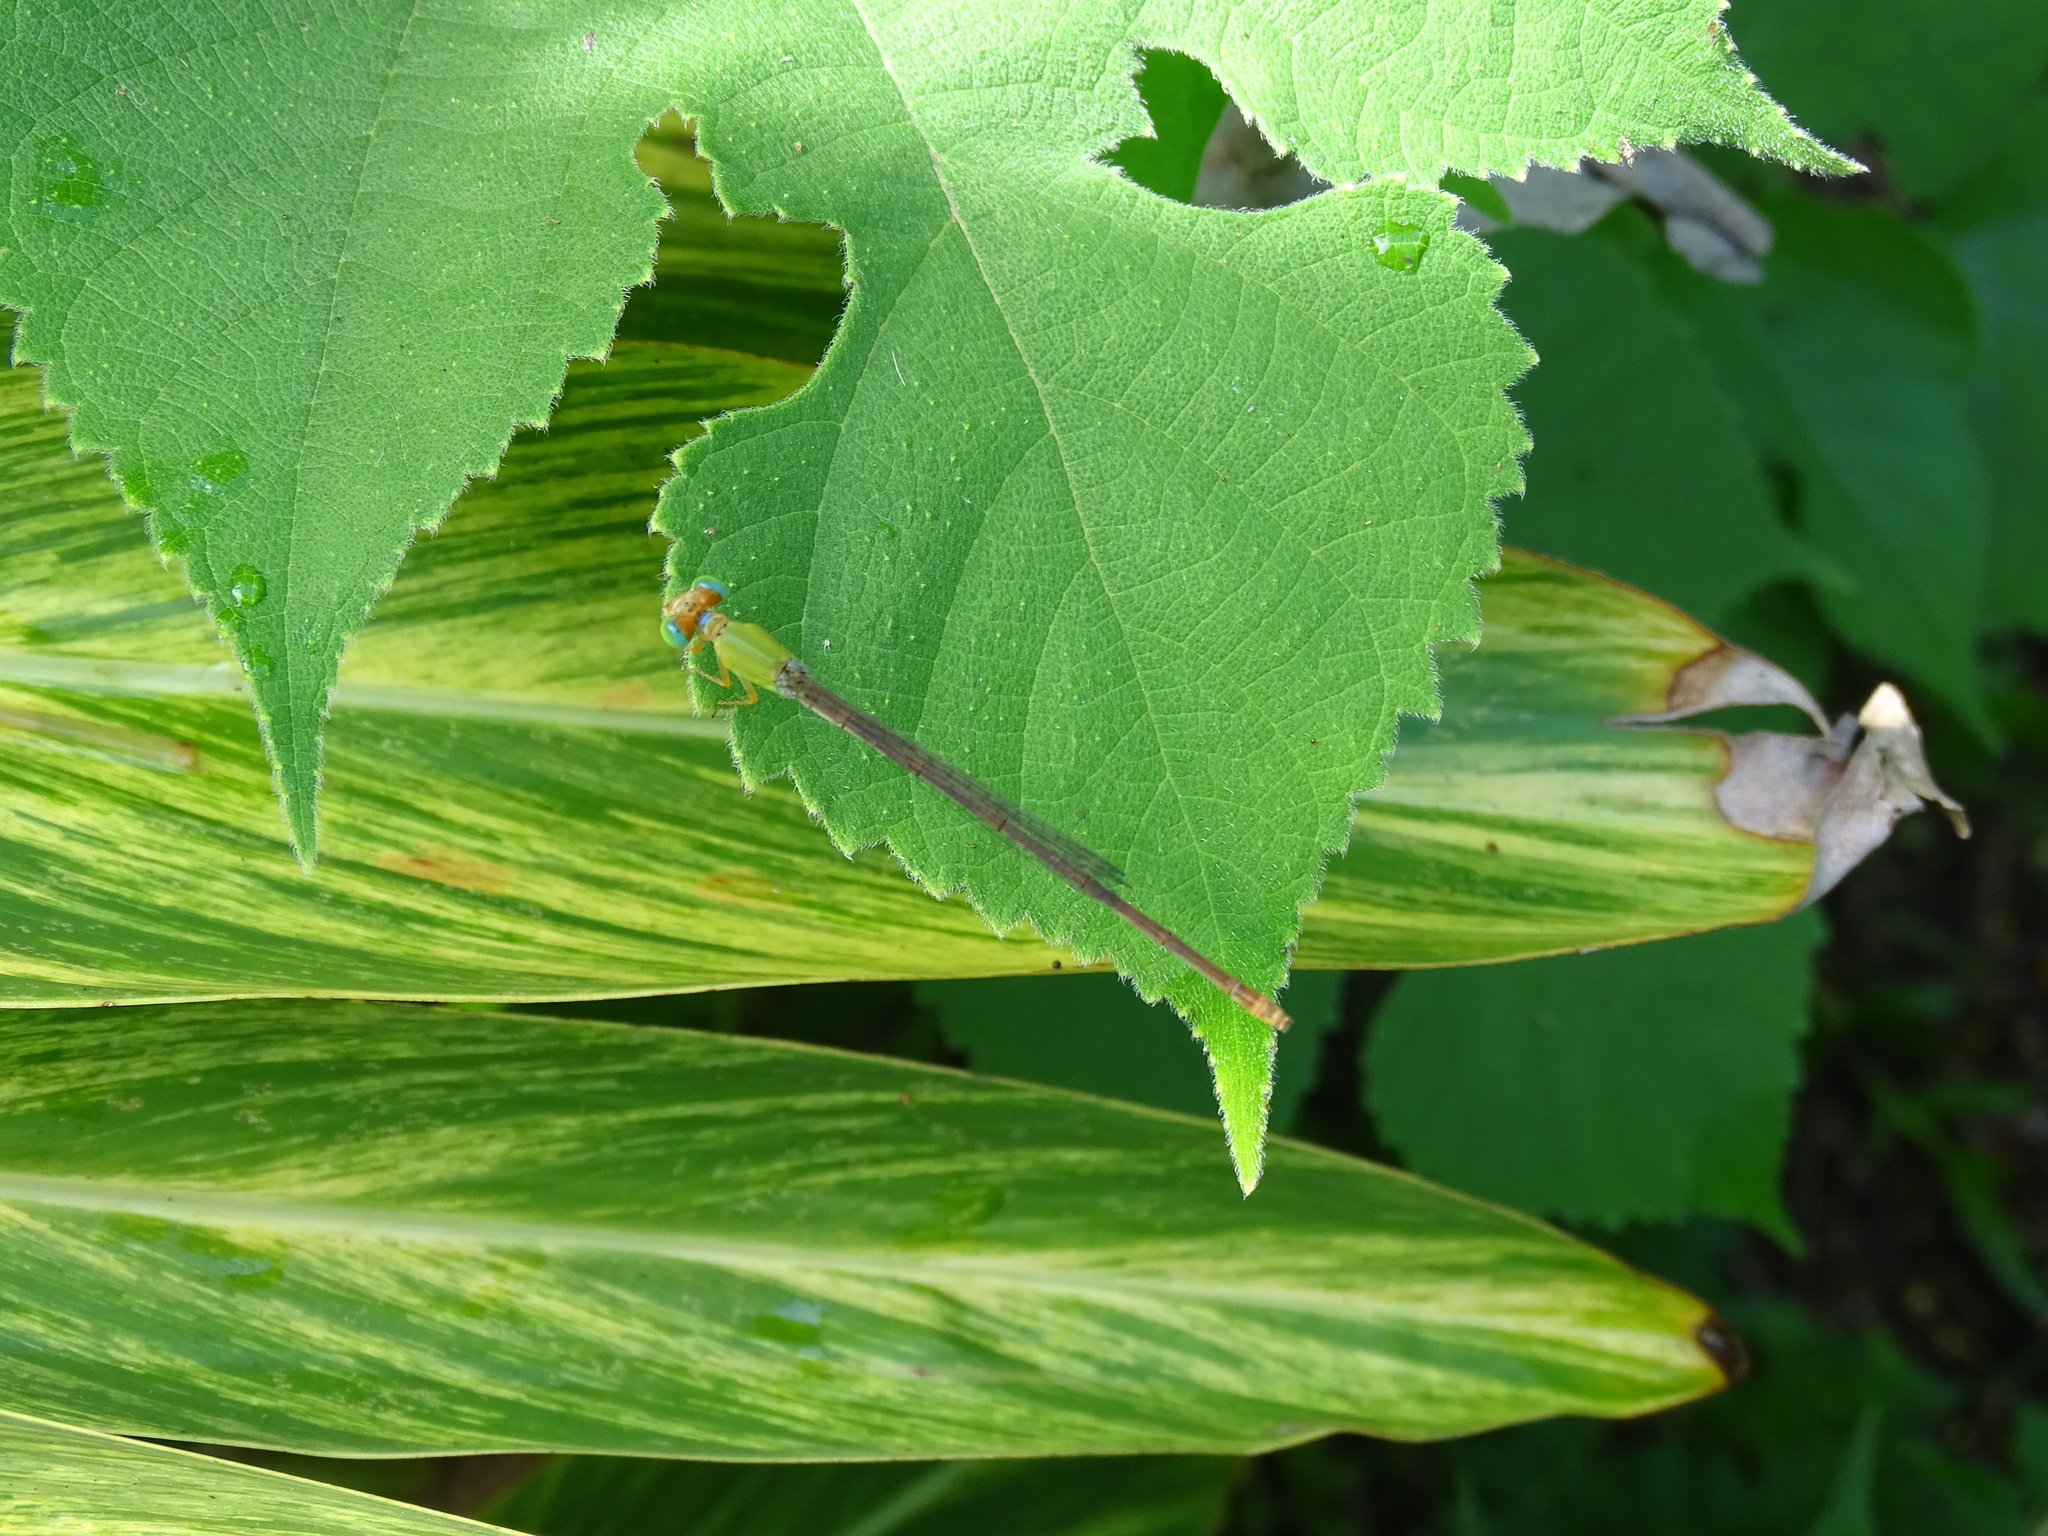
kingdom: Animalia
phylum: Arthropoda
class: Insecta
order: Odonata
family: Coenagrionidae
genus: Ceriagrion
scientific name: Ceriagrion auranticum
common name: Orange-tailed sprite
